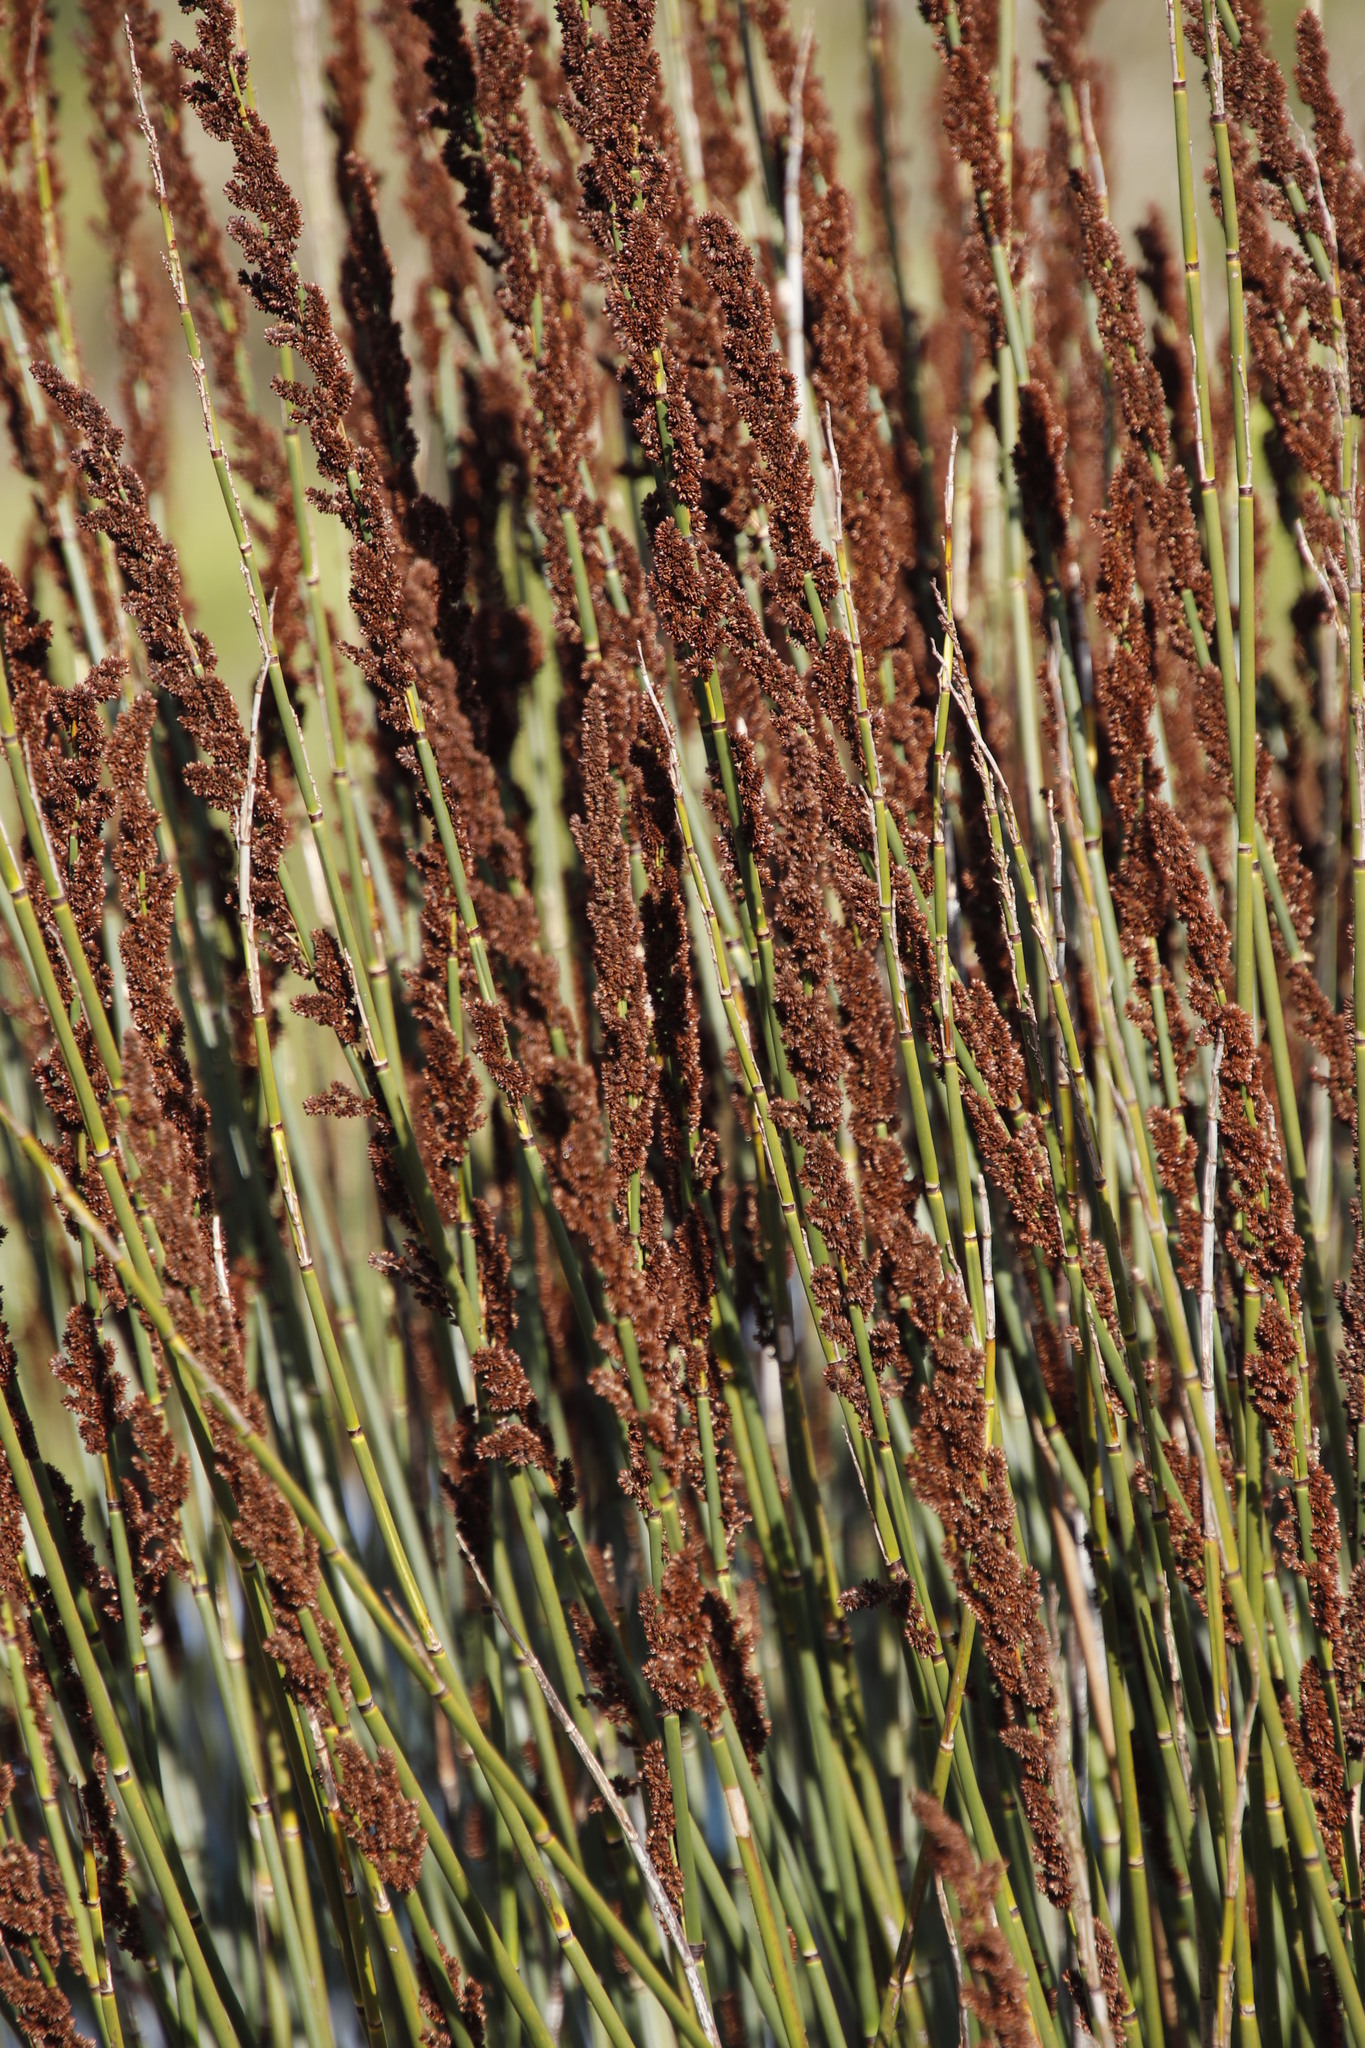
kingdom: Plantae
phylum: Tracheophyta
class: Liliopsida
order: Poales
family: Restionaceae
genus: Elegia
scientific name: Elegia tectorum
